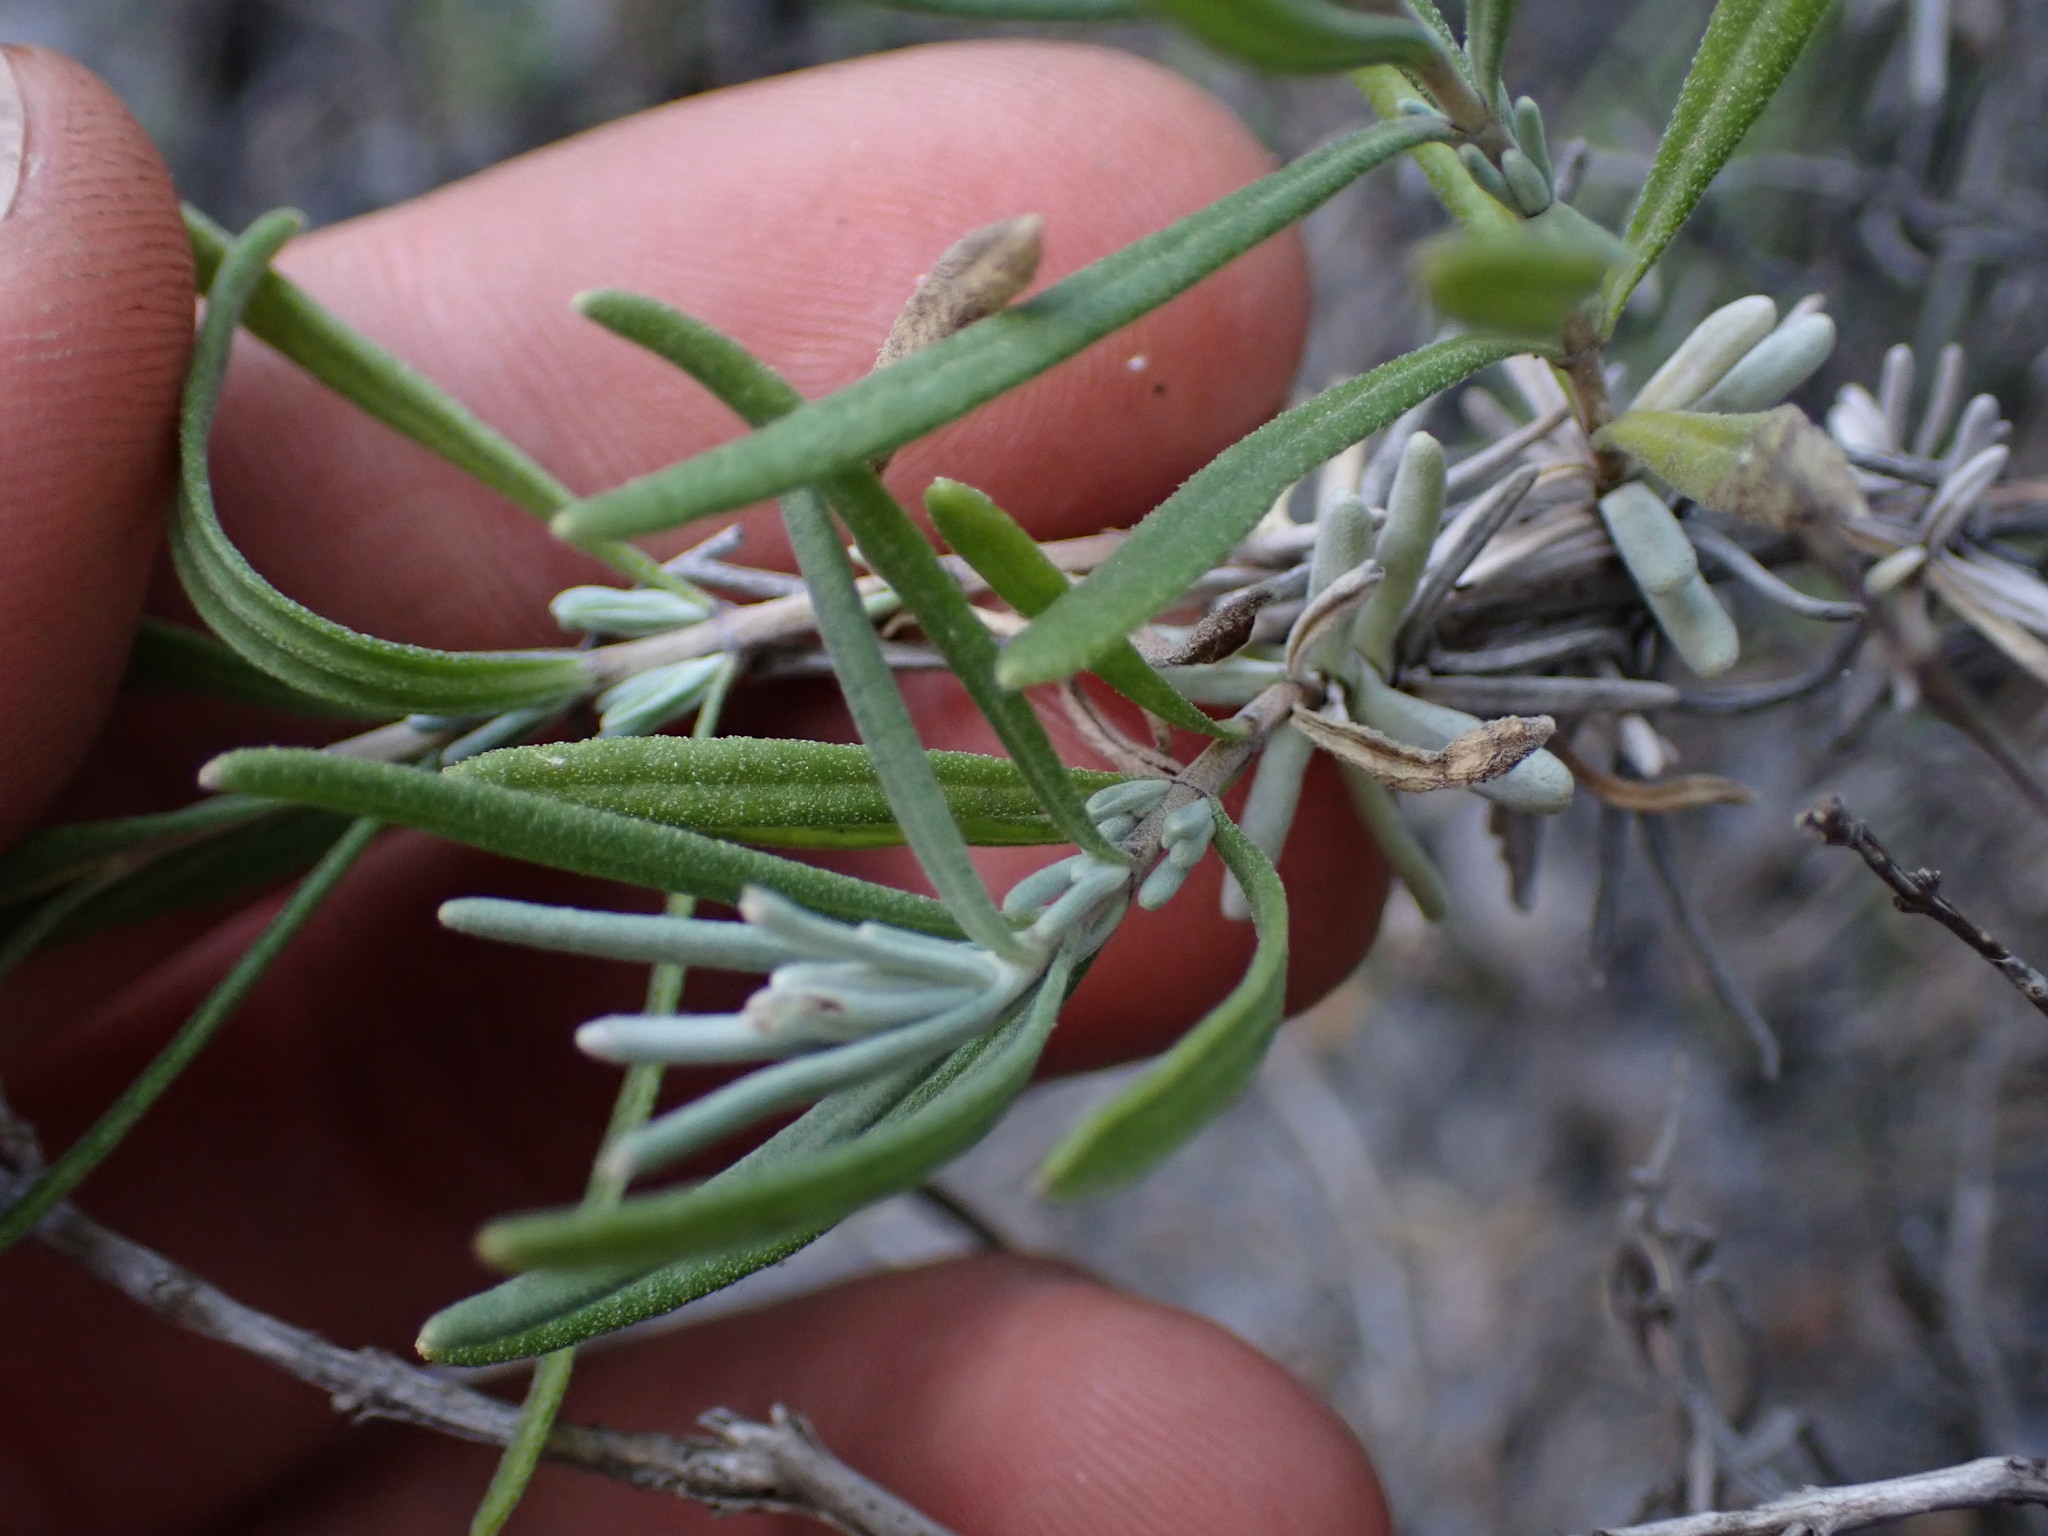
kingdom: Plantae
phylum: Tracheophyta
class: Magnoliopsida
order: Lamiales
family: Lamiaceae
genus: Lavandula
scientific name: Lavandula angustifolia
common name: Garden lavender
